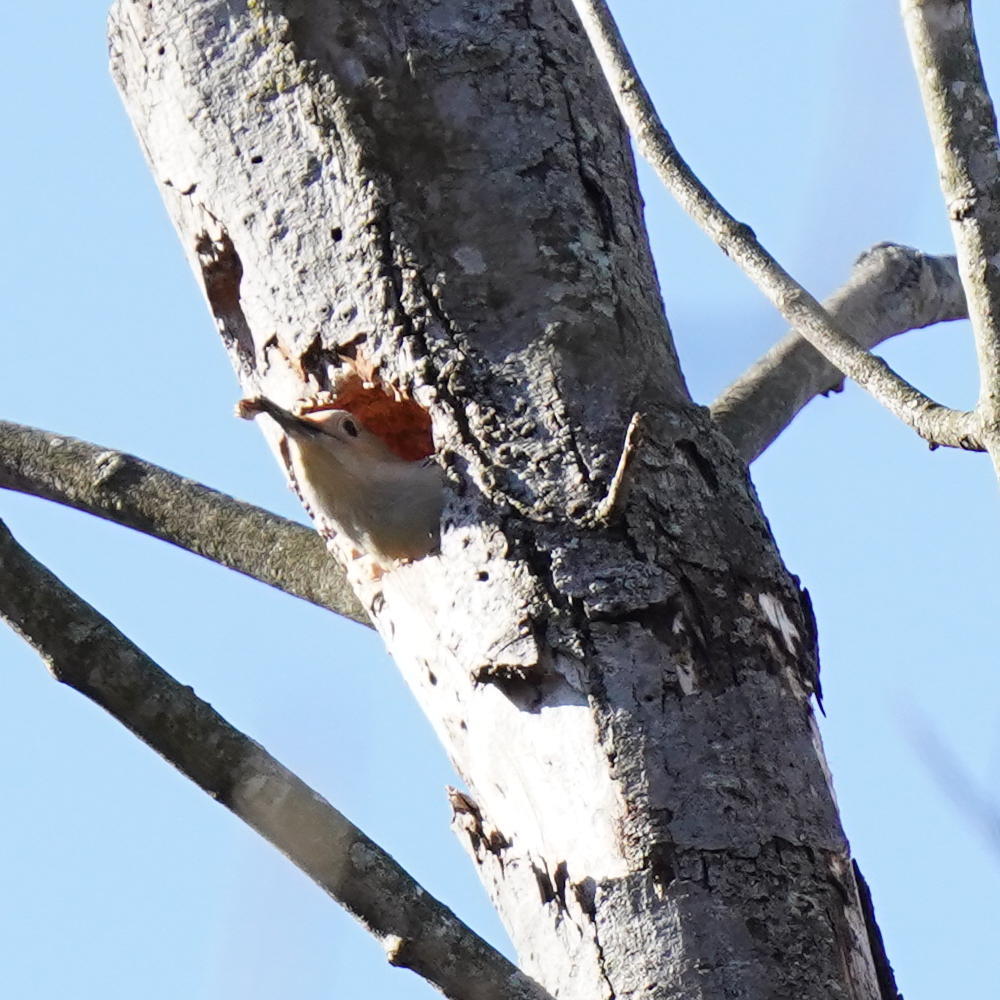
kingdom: Animalia
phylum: Chordata
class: Aves
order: Piciformes
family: Picidae
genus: Melanerpes
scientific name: Melanerpes carolinus
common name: Red-bellied woodpecker
